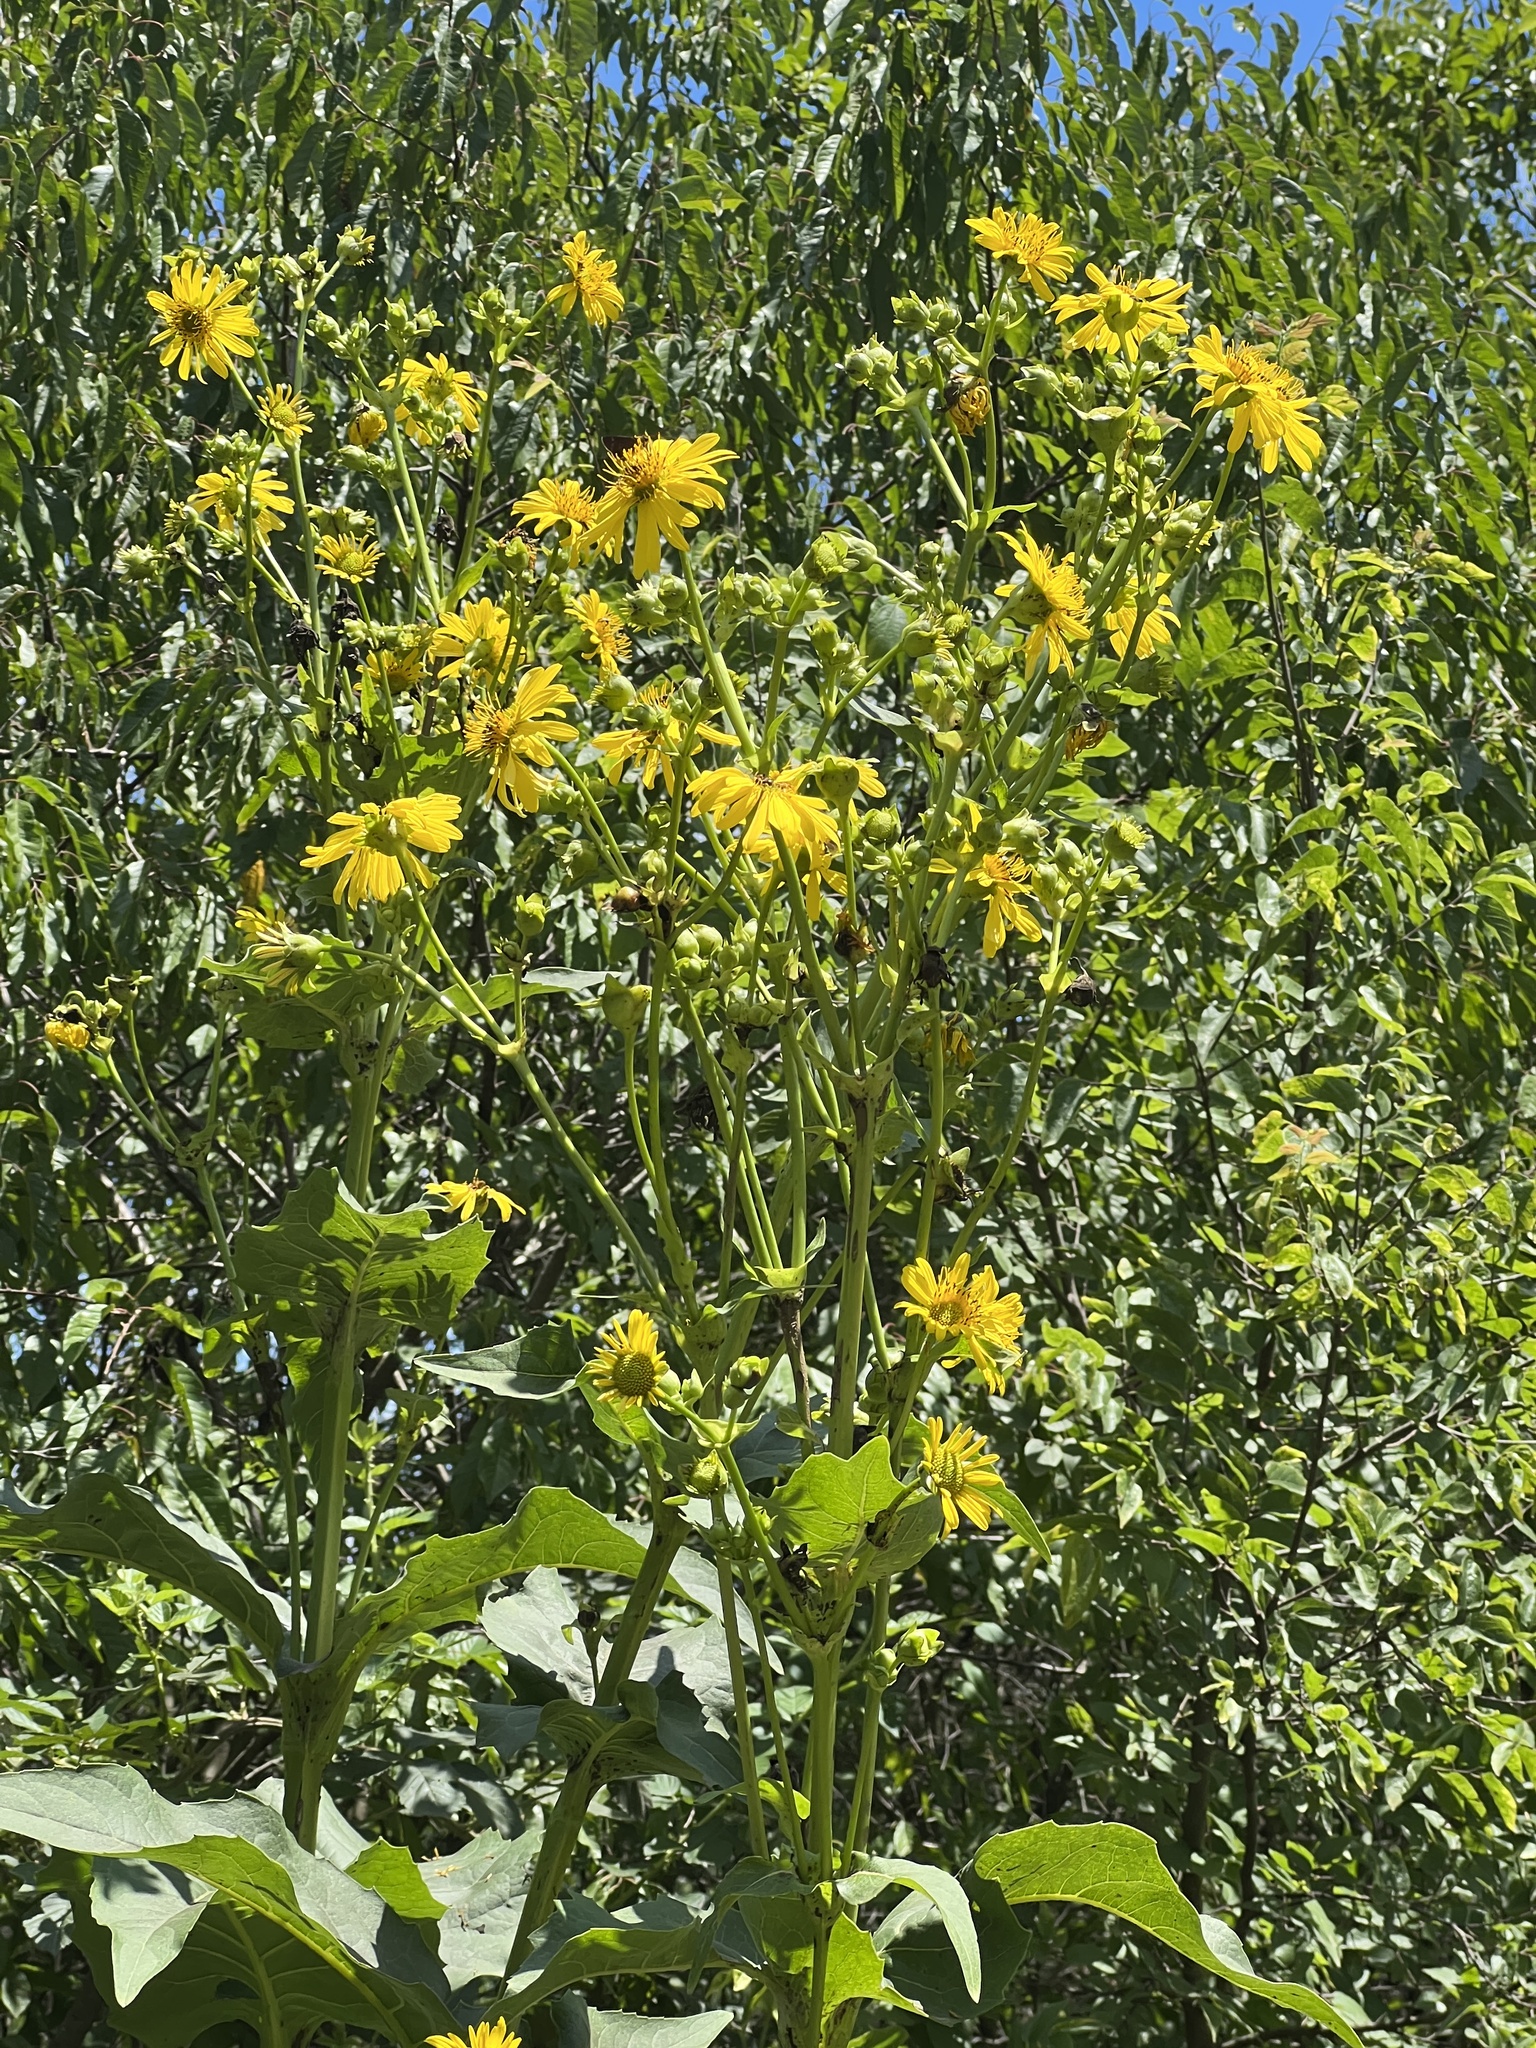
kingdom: Plantae
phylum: Tracheophyta
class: Magnoliopsida
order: Asterales
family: Asteraceae
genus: Silphium
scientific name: Silphium perfoliatum
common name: Cup-plant
